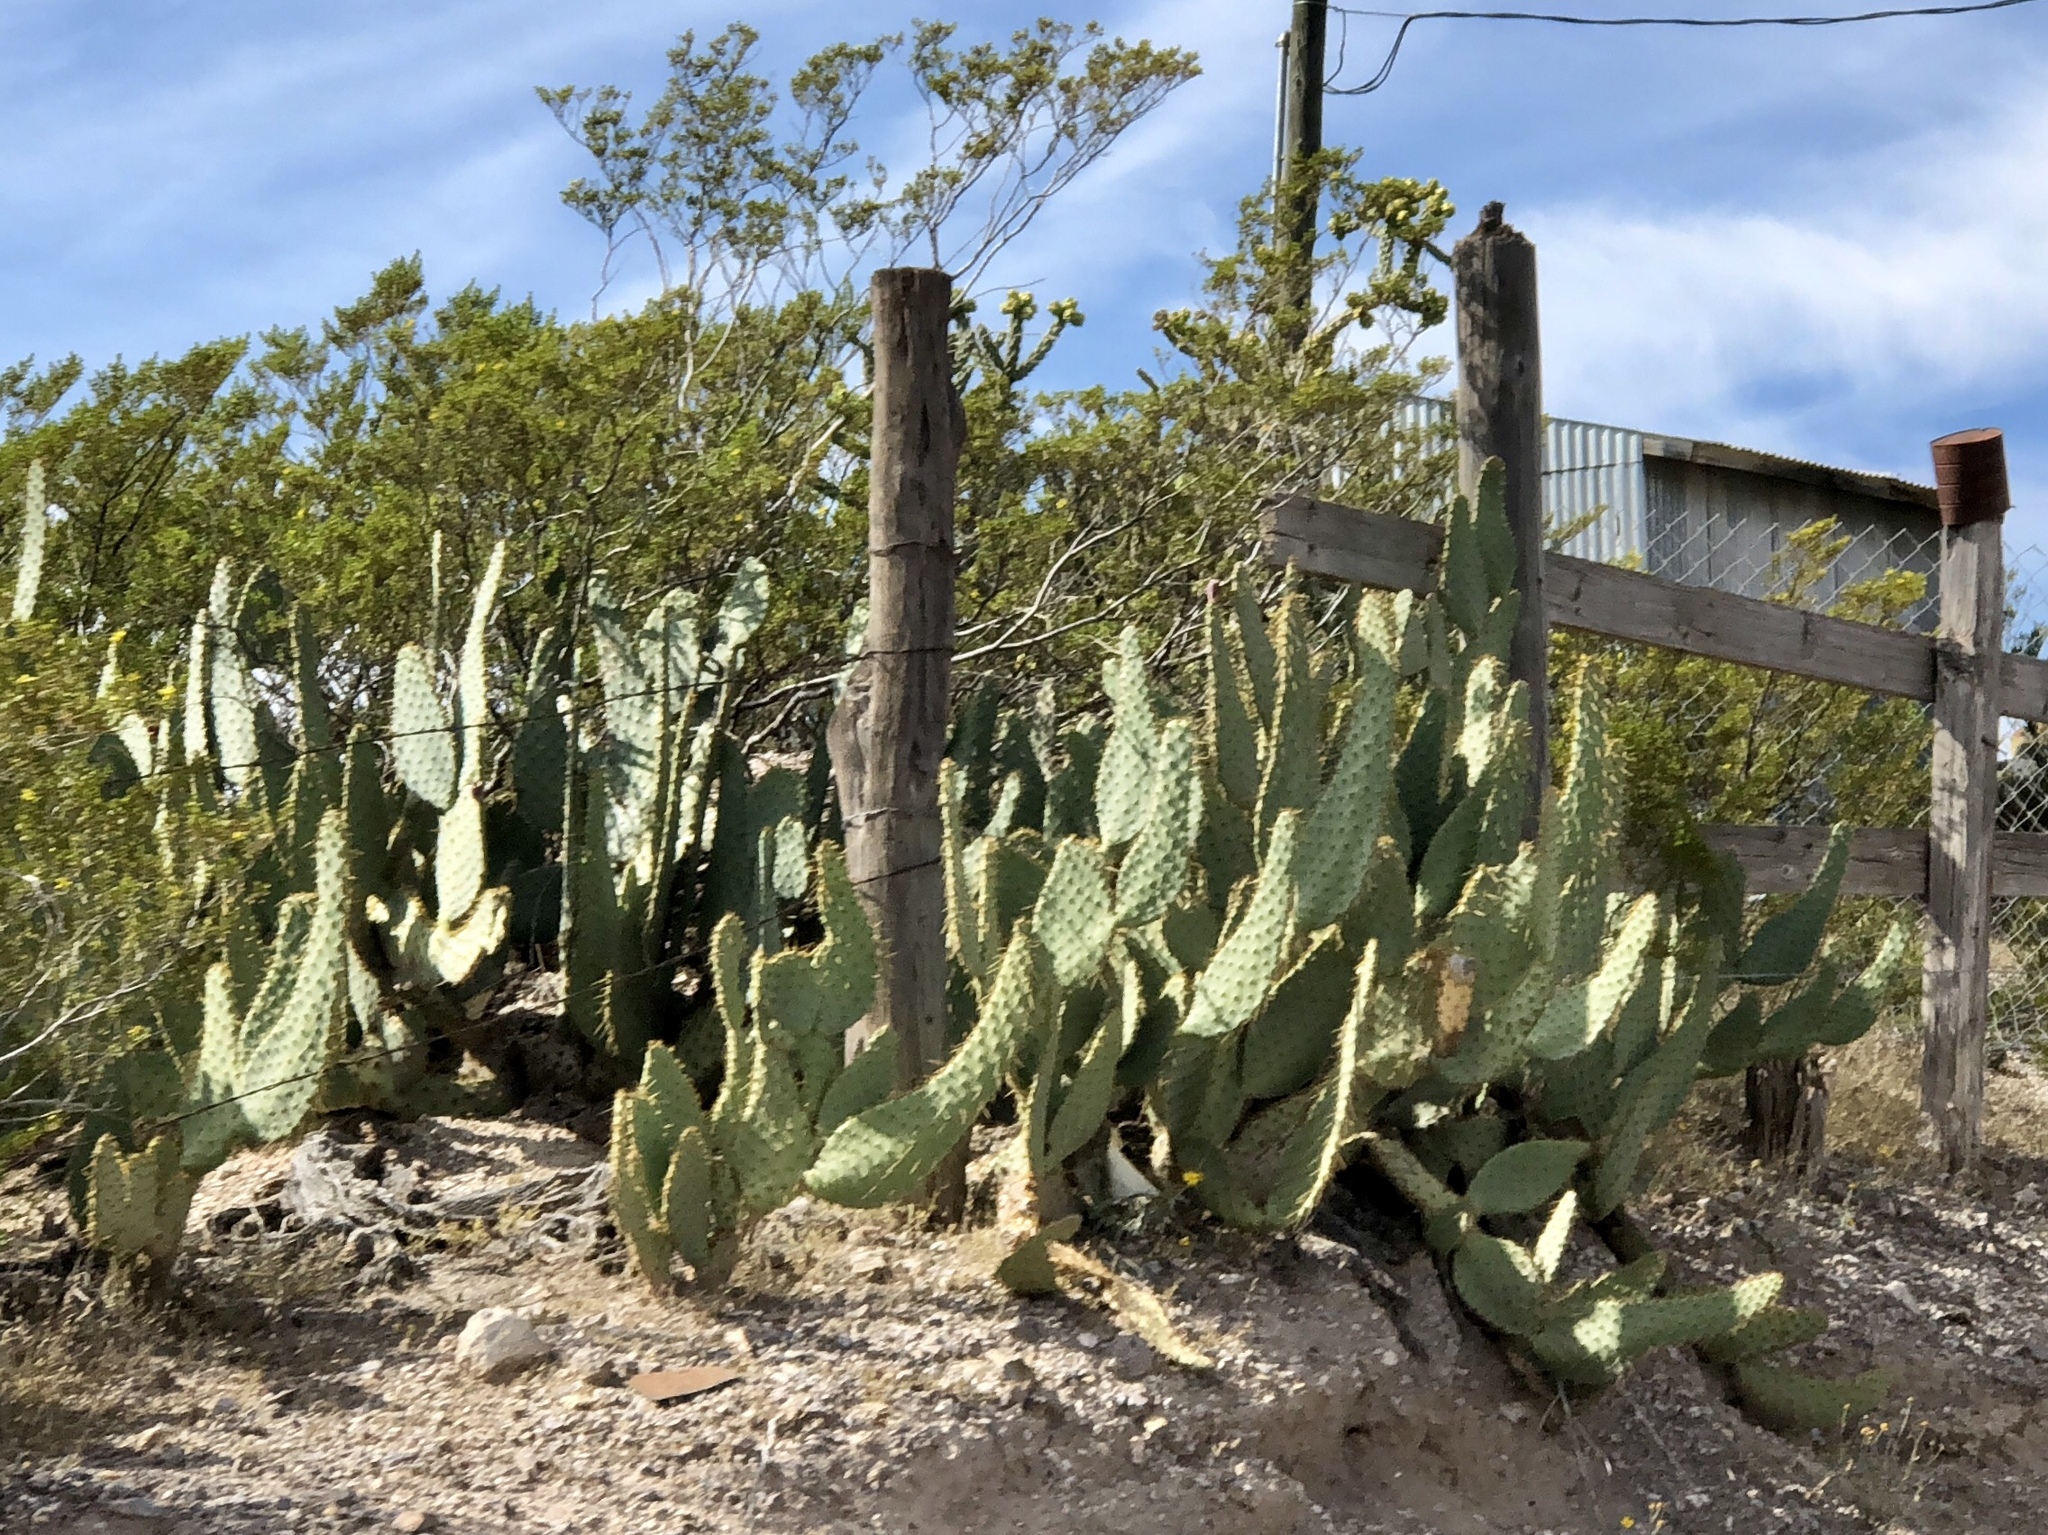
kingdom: Plantae
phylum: Tracheophyta
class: Magnoliopsida
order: Caryophyllales
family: Cactaceae
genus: Opuntia
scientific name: Opuntia engelmannii
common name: Cactus-apple
